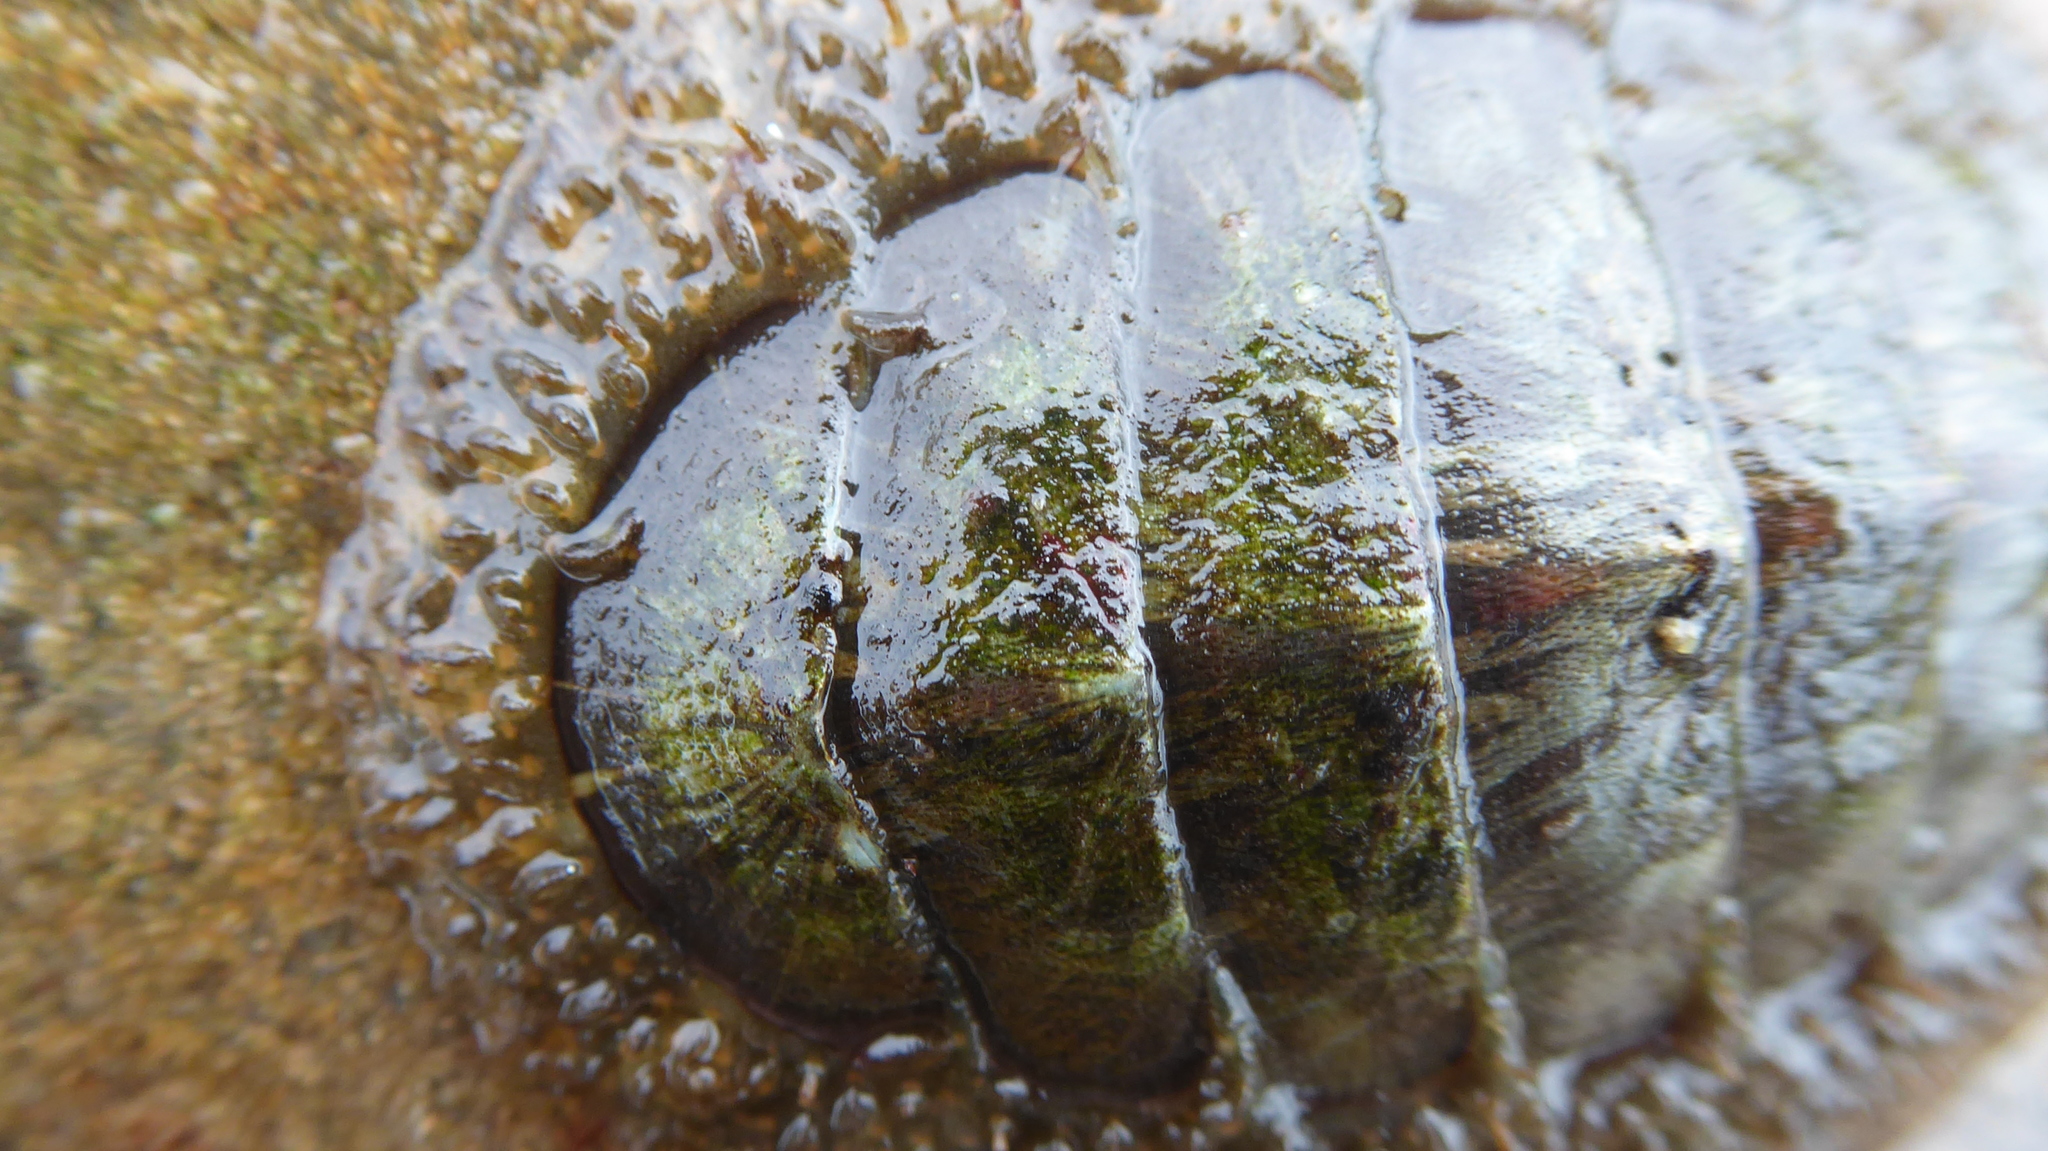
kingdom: Animalia
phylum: Mollusca
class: Polyplacophora
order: Chitonida
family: Mopaliidae
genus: Mopalia
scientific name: Mopalia lignosa
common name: Woody chiton
